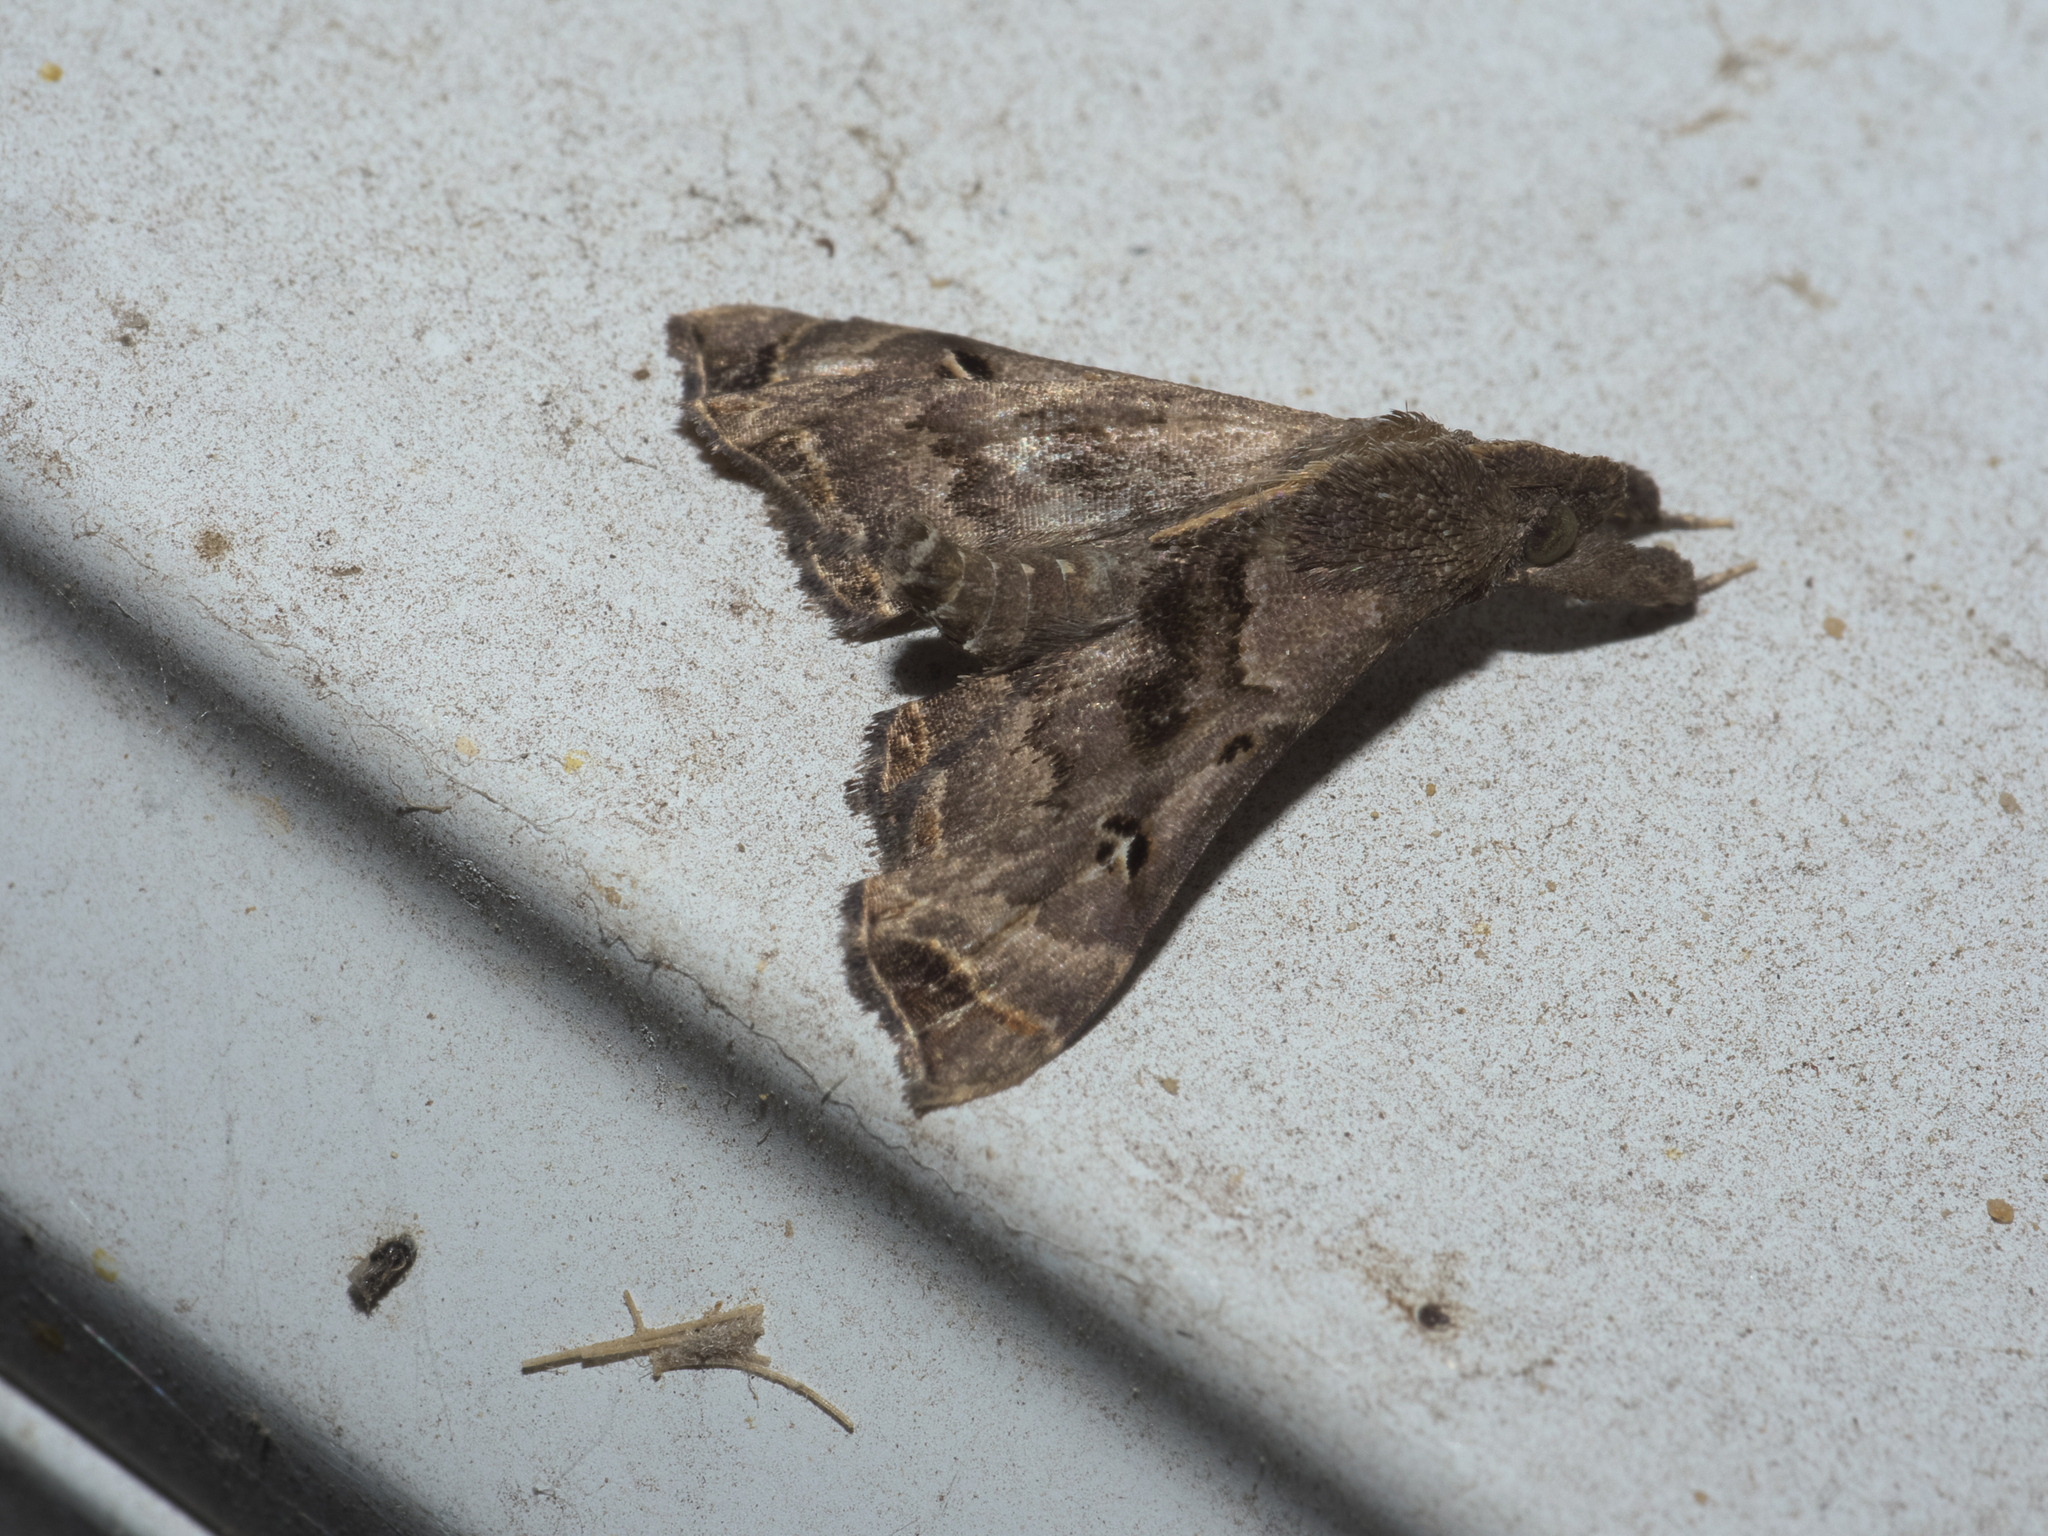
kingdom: Animalia
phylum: Arthropoda
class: Insecta
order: Lepidoptera
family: Erebidae
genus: Palthis
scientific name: Palthis asopialis
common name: Faint-spotted palthis moth
